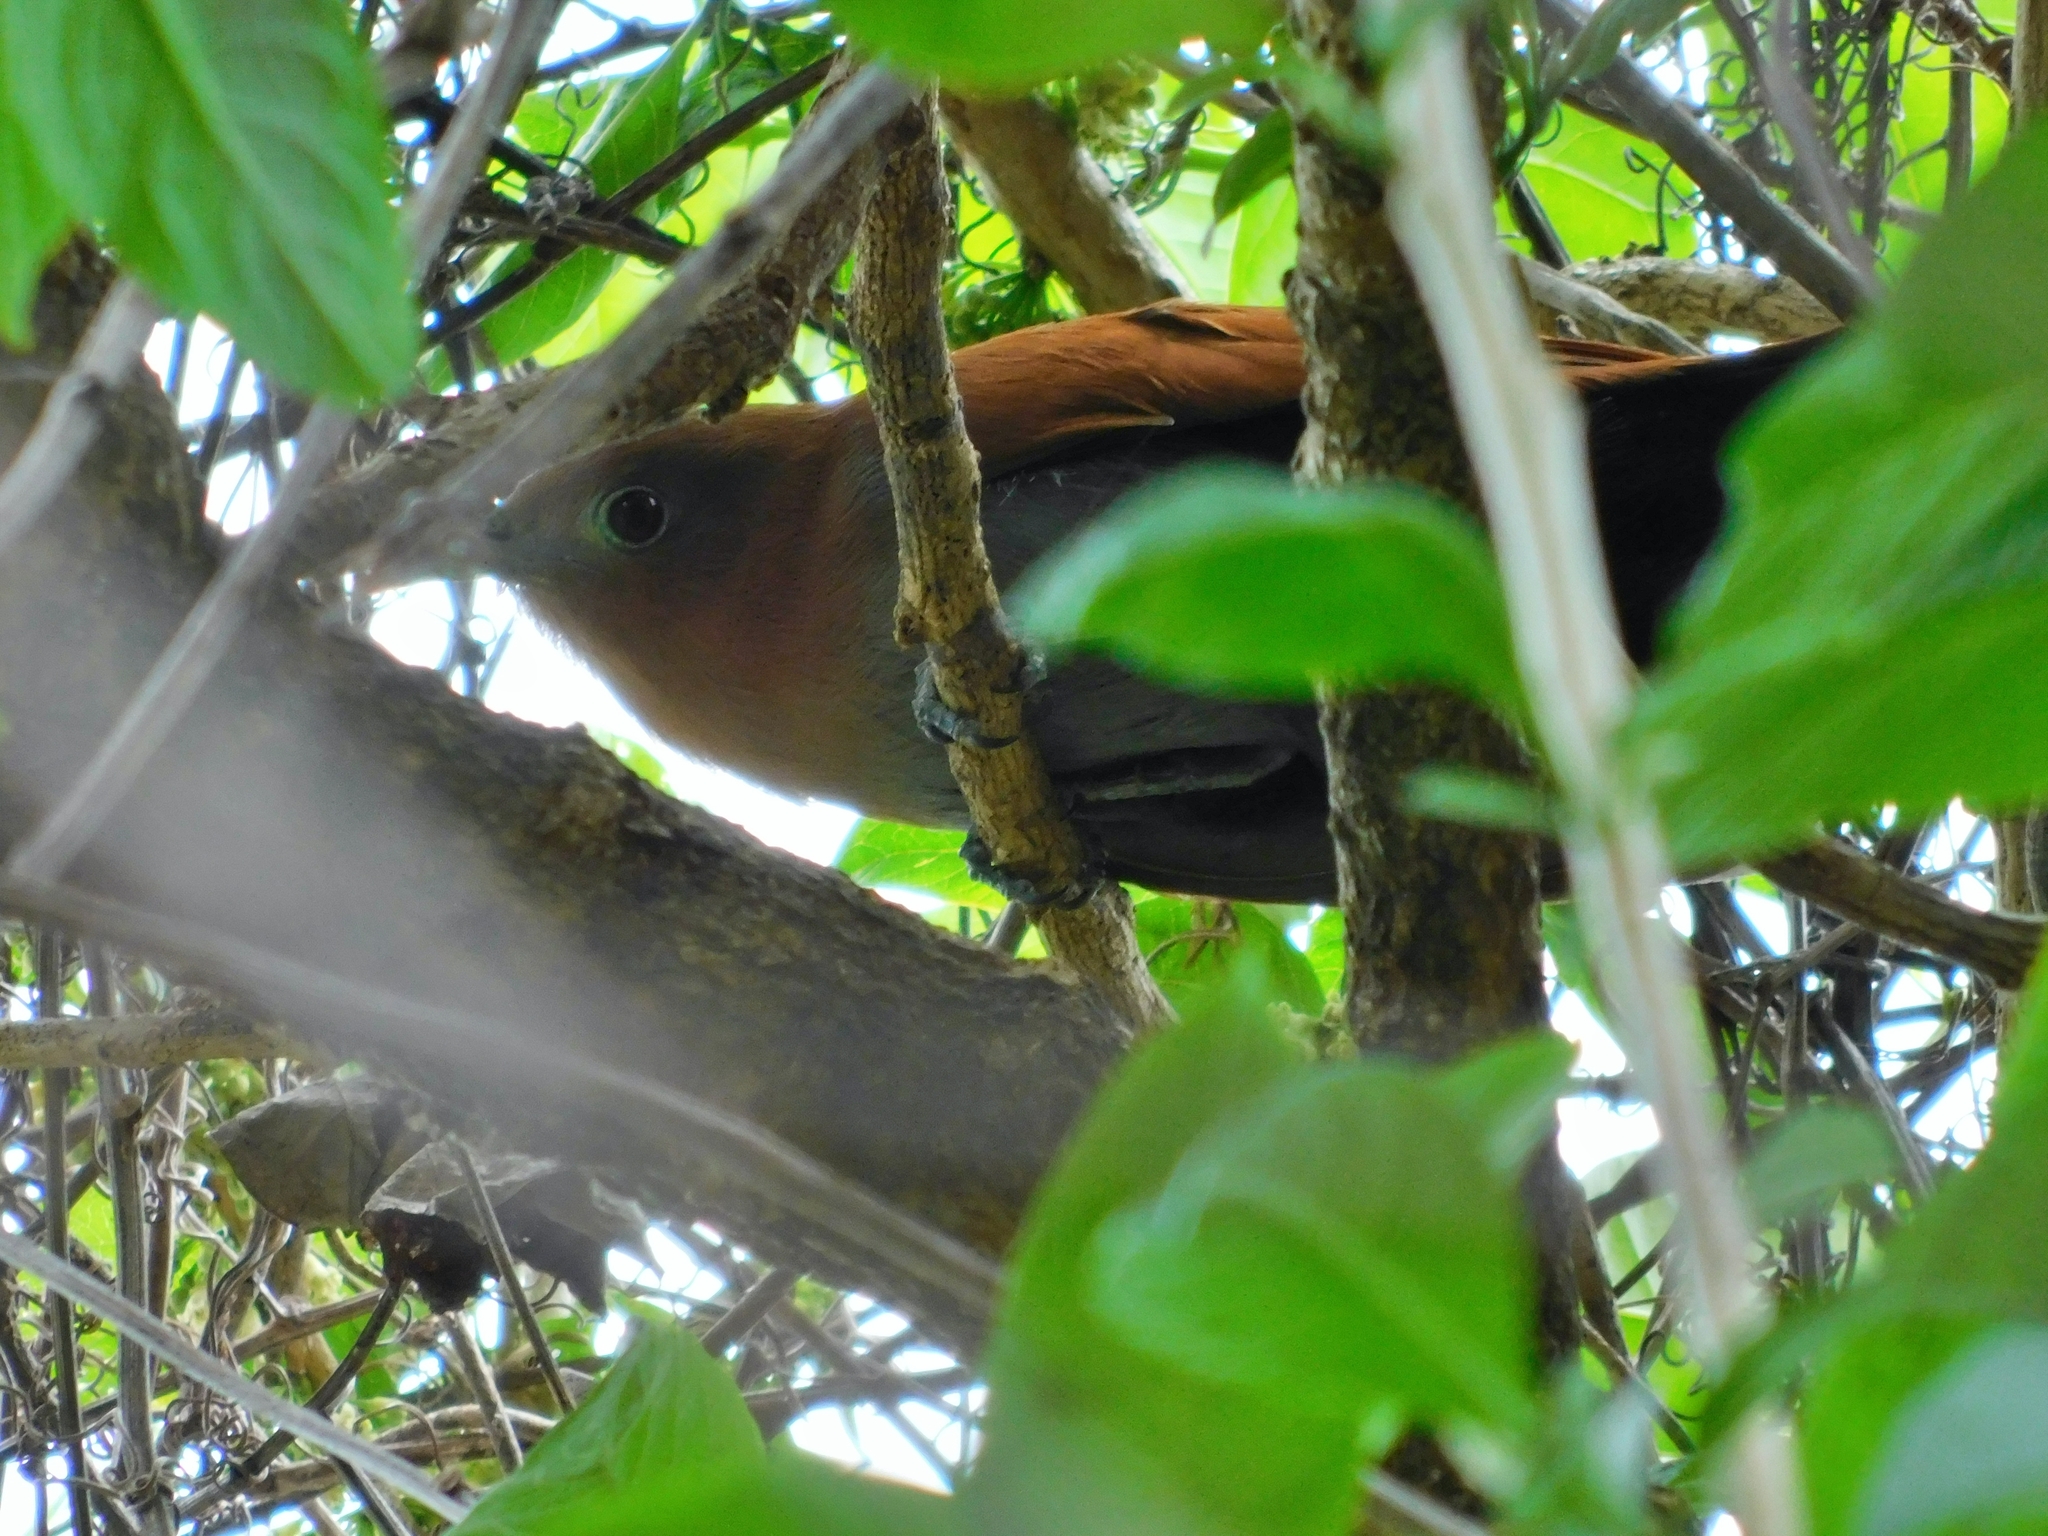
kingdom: Animalia
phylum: Chordata
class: Aves
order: Cuculiformes
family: Cuculidae
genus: Piaya
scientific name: Piaya cayana
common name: Squirrel cuckoo
